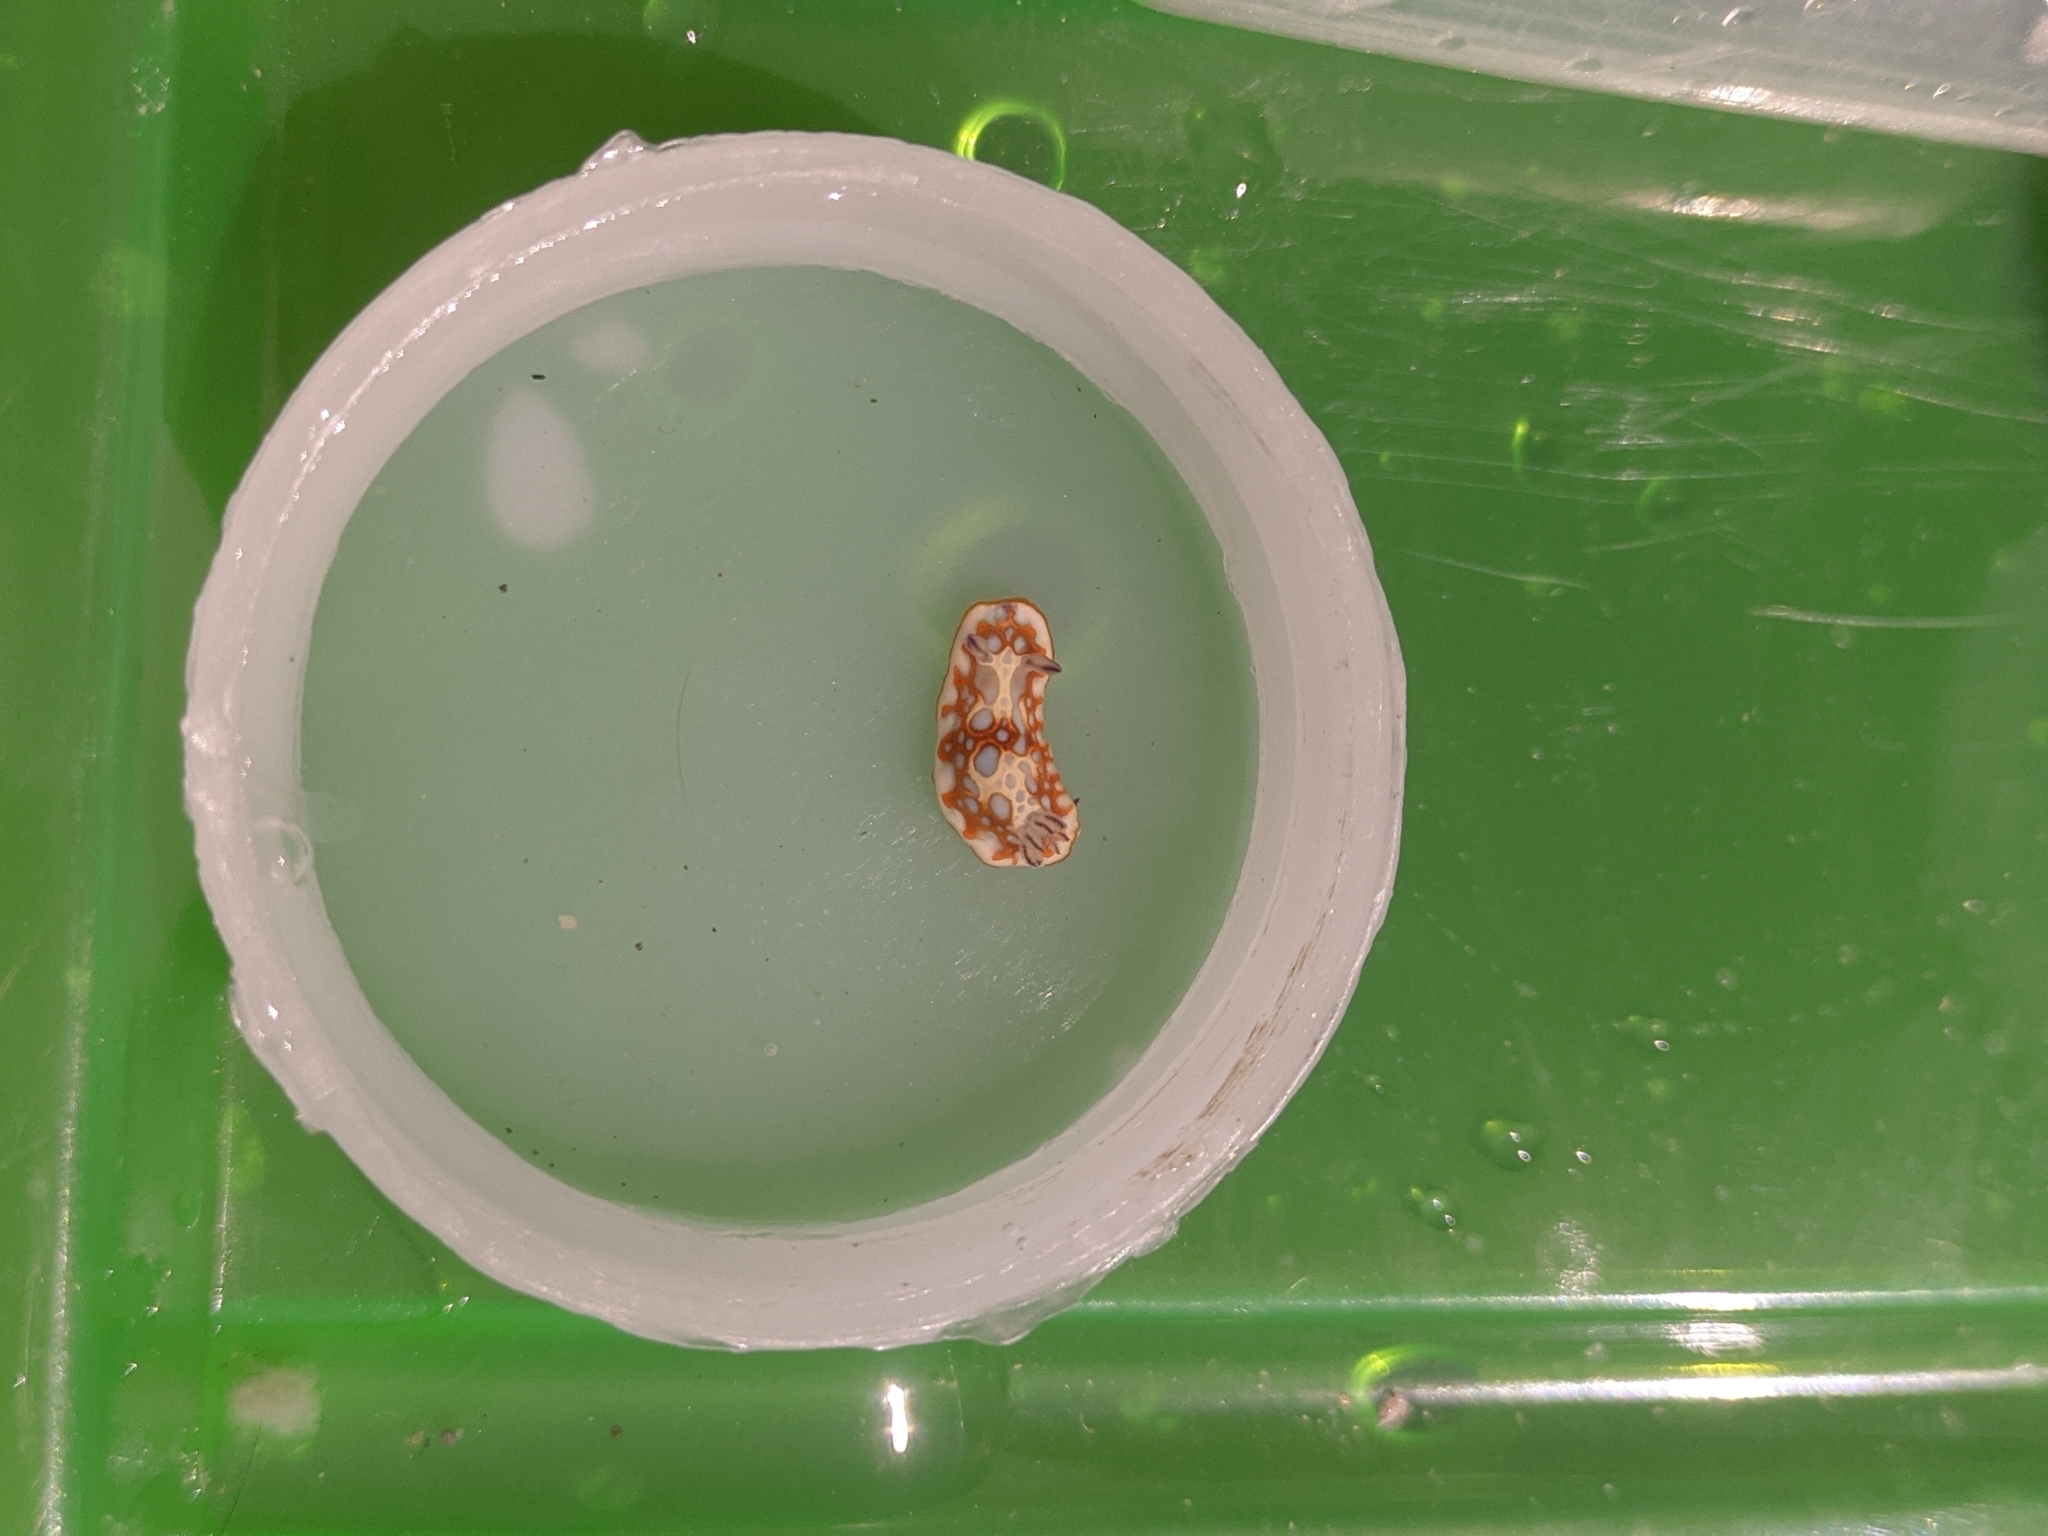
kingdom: Animalia
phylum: Mollusca
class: Gastropoda
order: Nudibranchia
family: Chromodorididae
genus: Felimida
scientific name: Felimida clenchi
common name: Bill clench's doris
